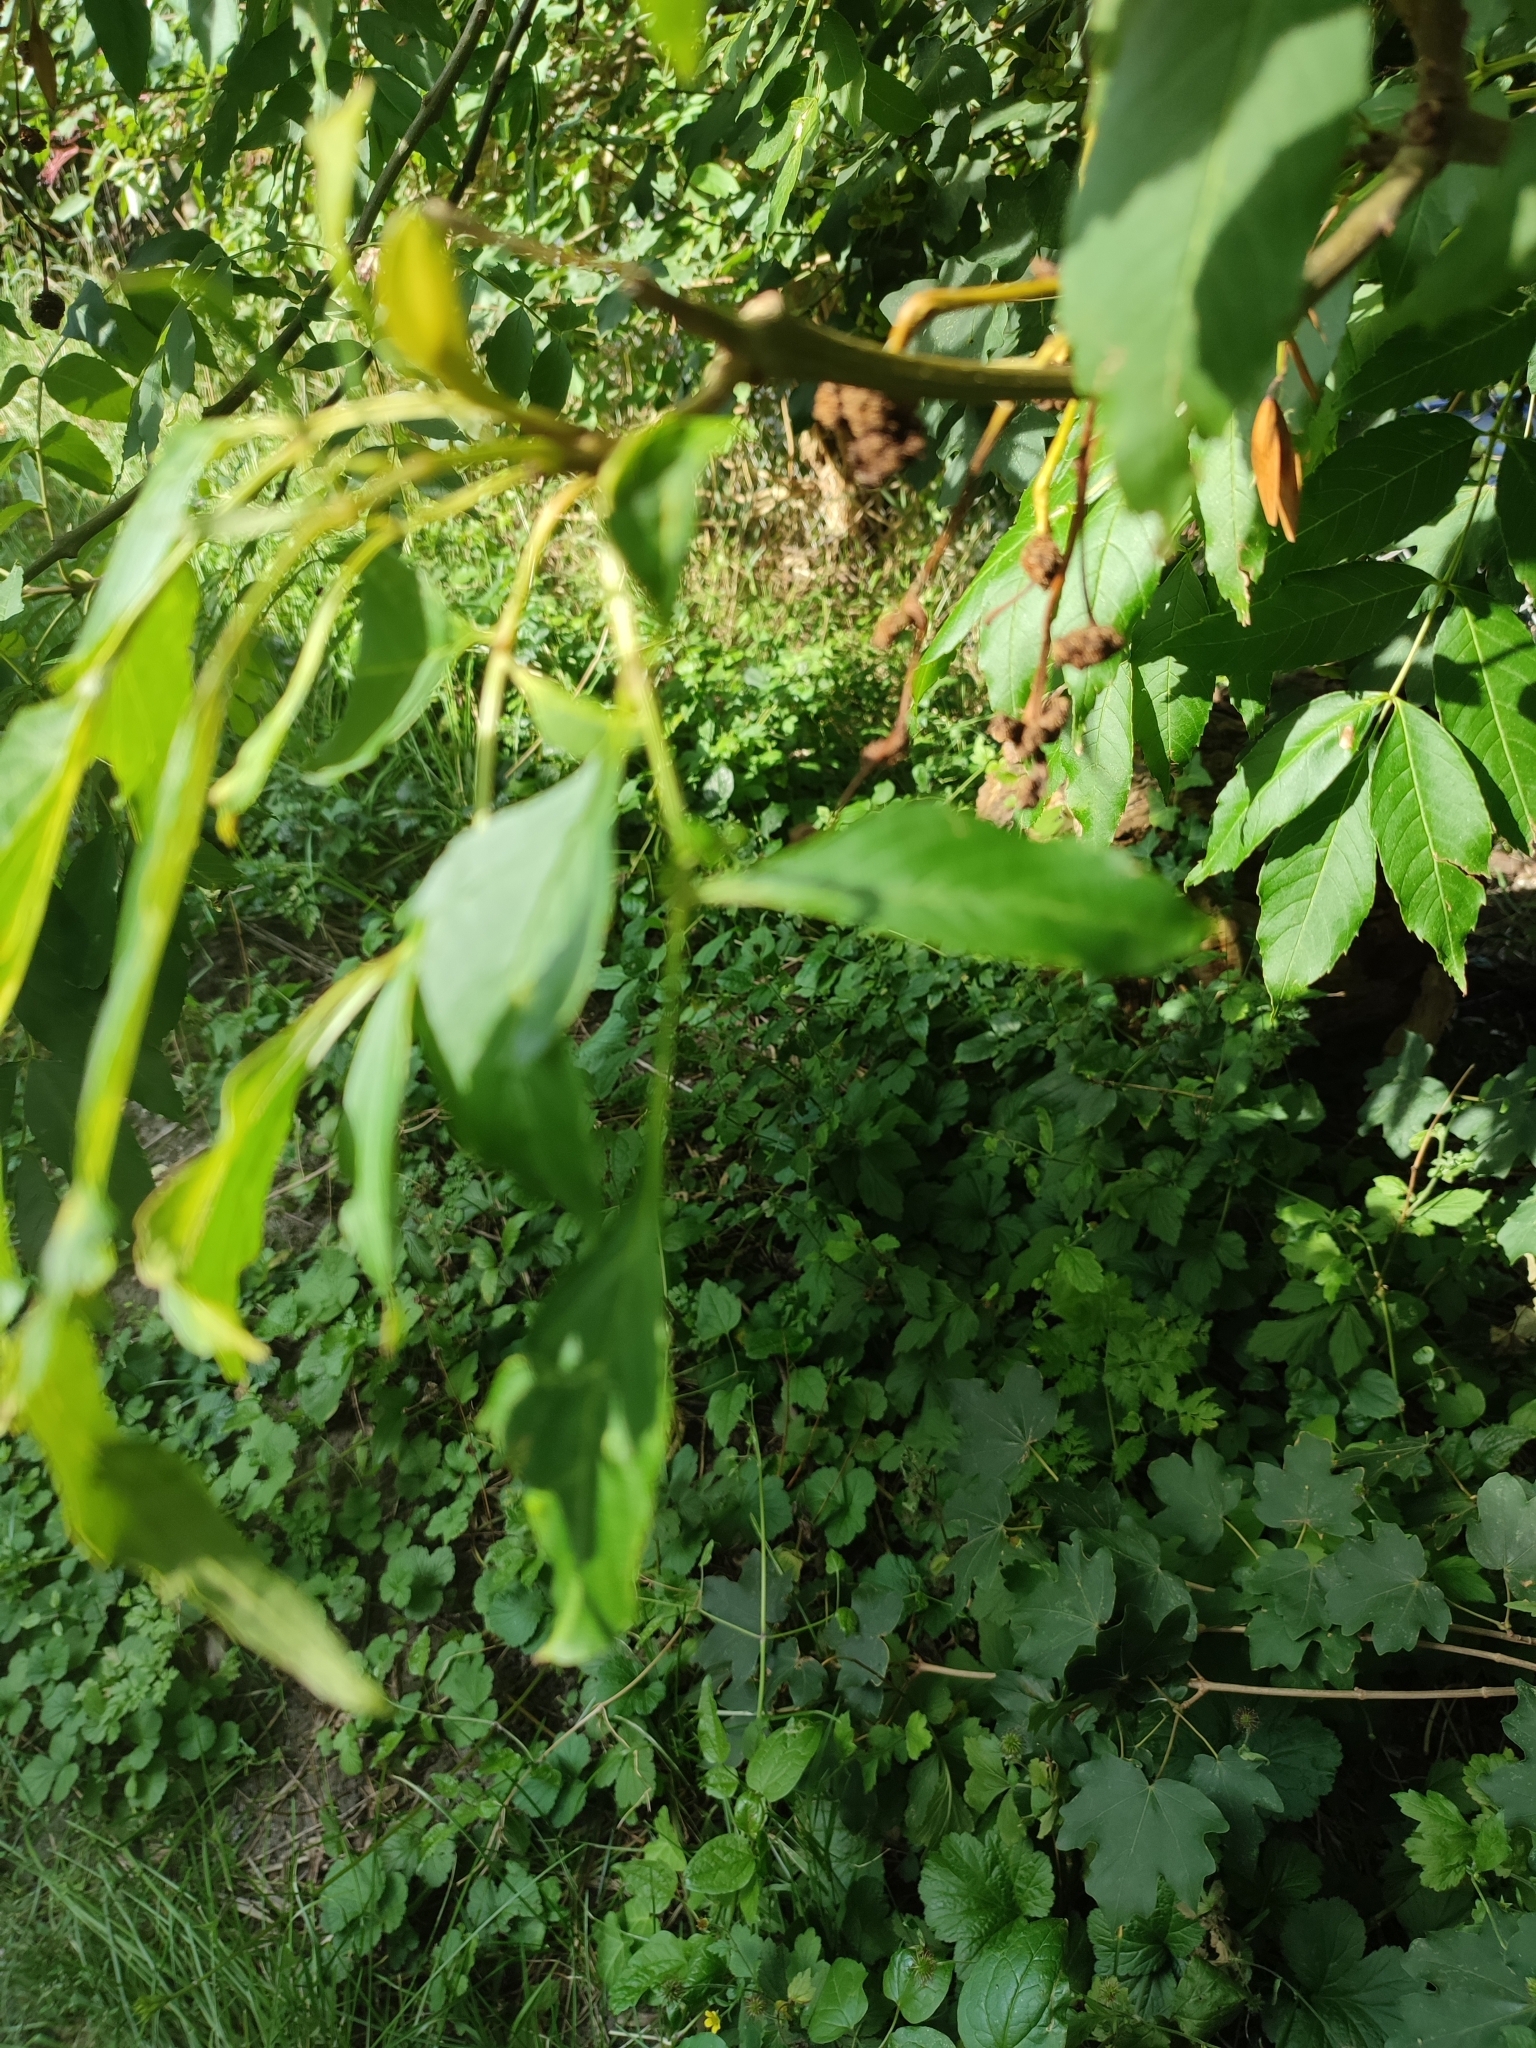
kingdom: Plantae
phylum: Tracheophyta
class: Magnoliopsida
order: Lamiales
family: Oleaceae
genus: Fraxinus
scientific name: Fraxinus excelsior
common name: European ash
